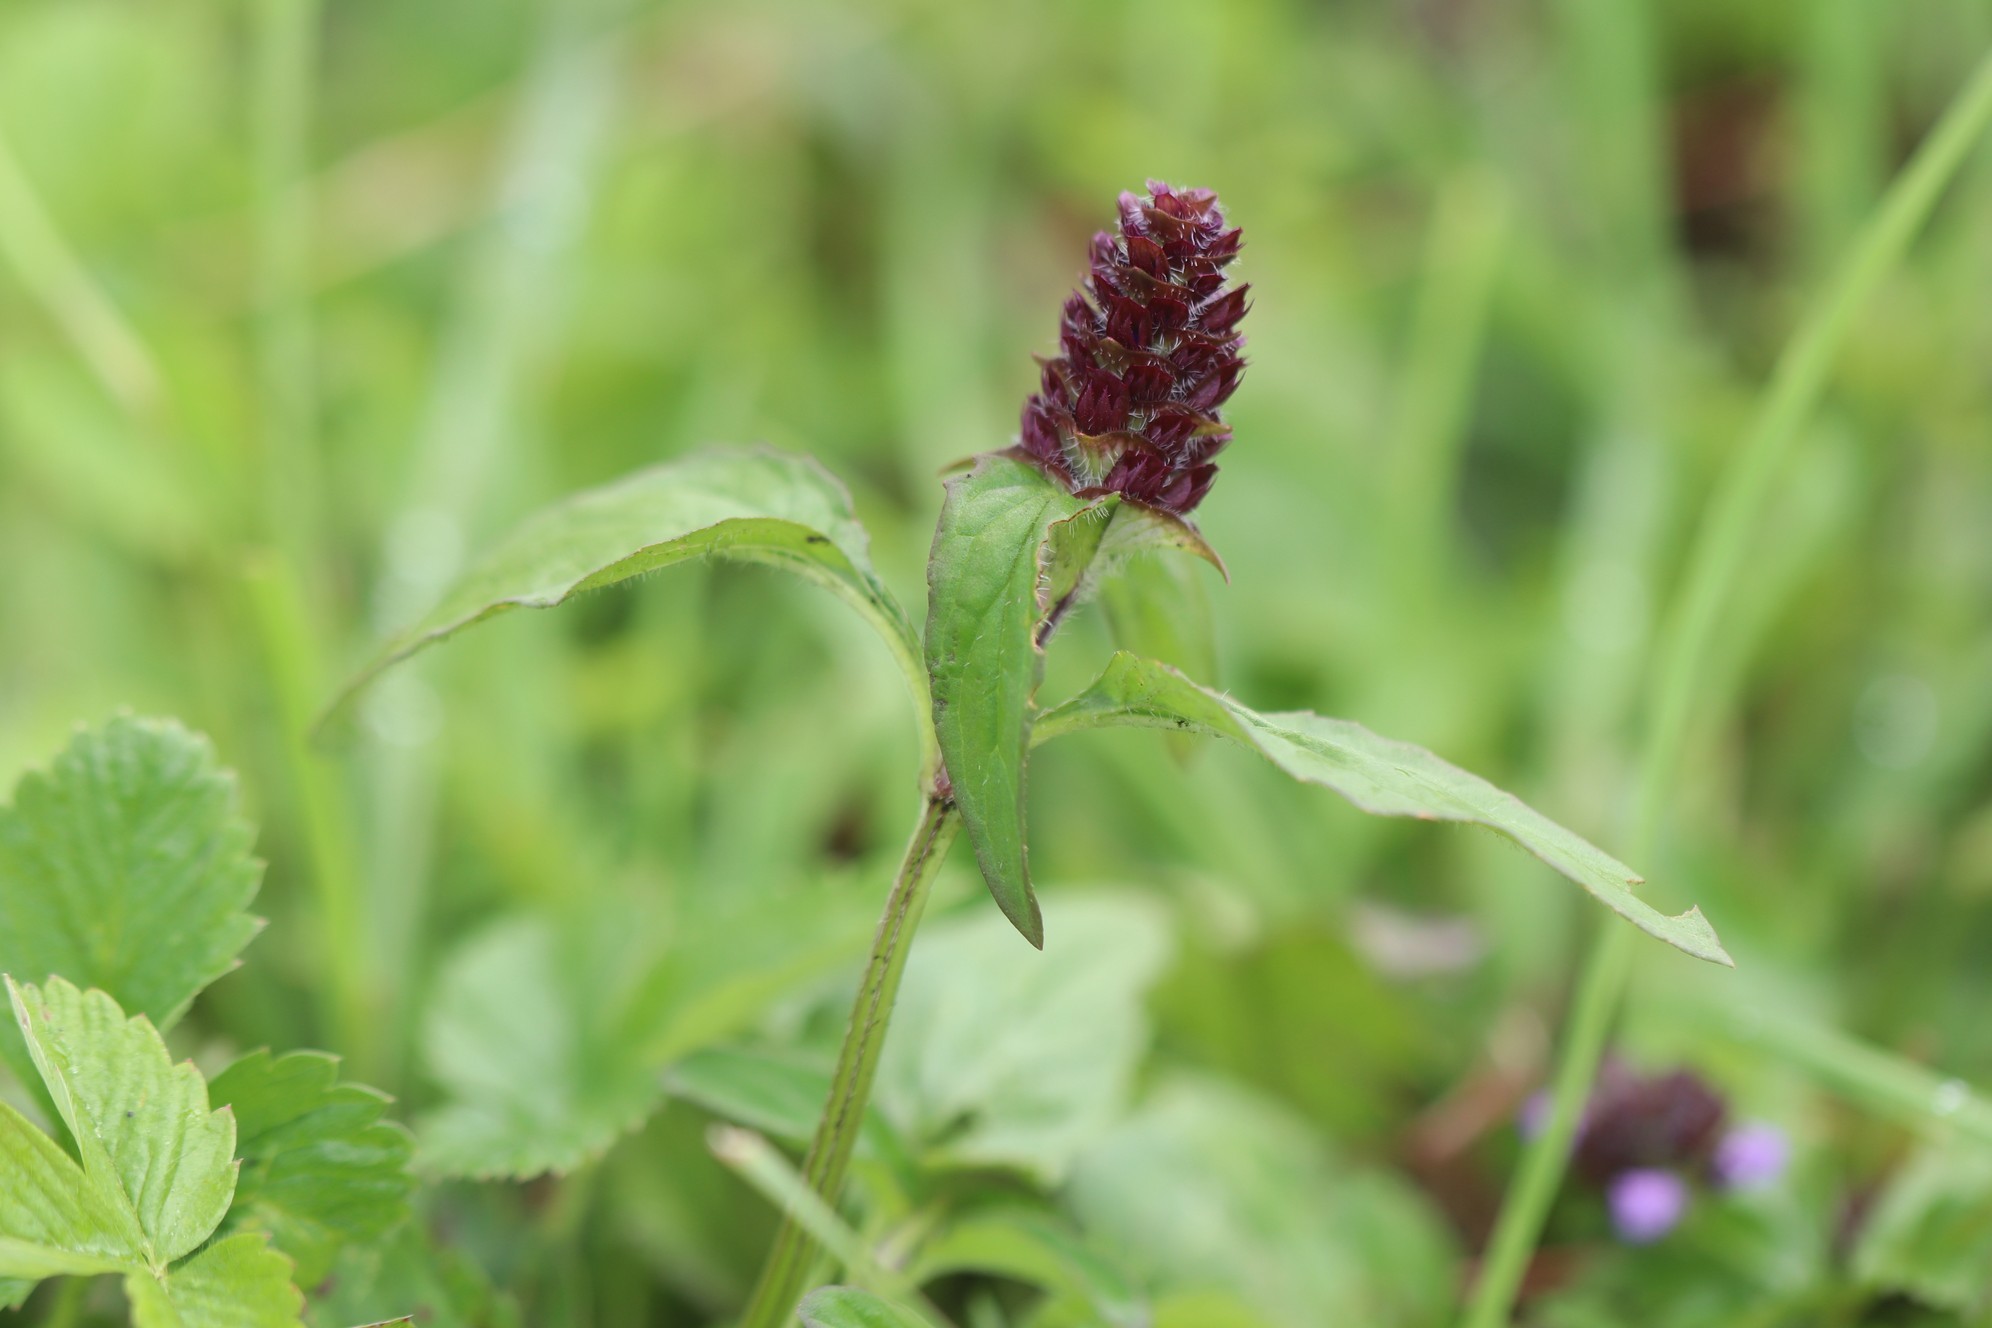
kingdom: Plantae
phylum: Tracheophyta
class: Magnoliopsida
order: Lamiales
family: Lamiaceae
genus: Prunella
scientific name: Prunella vulgaris
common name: Heal-all
